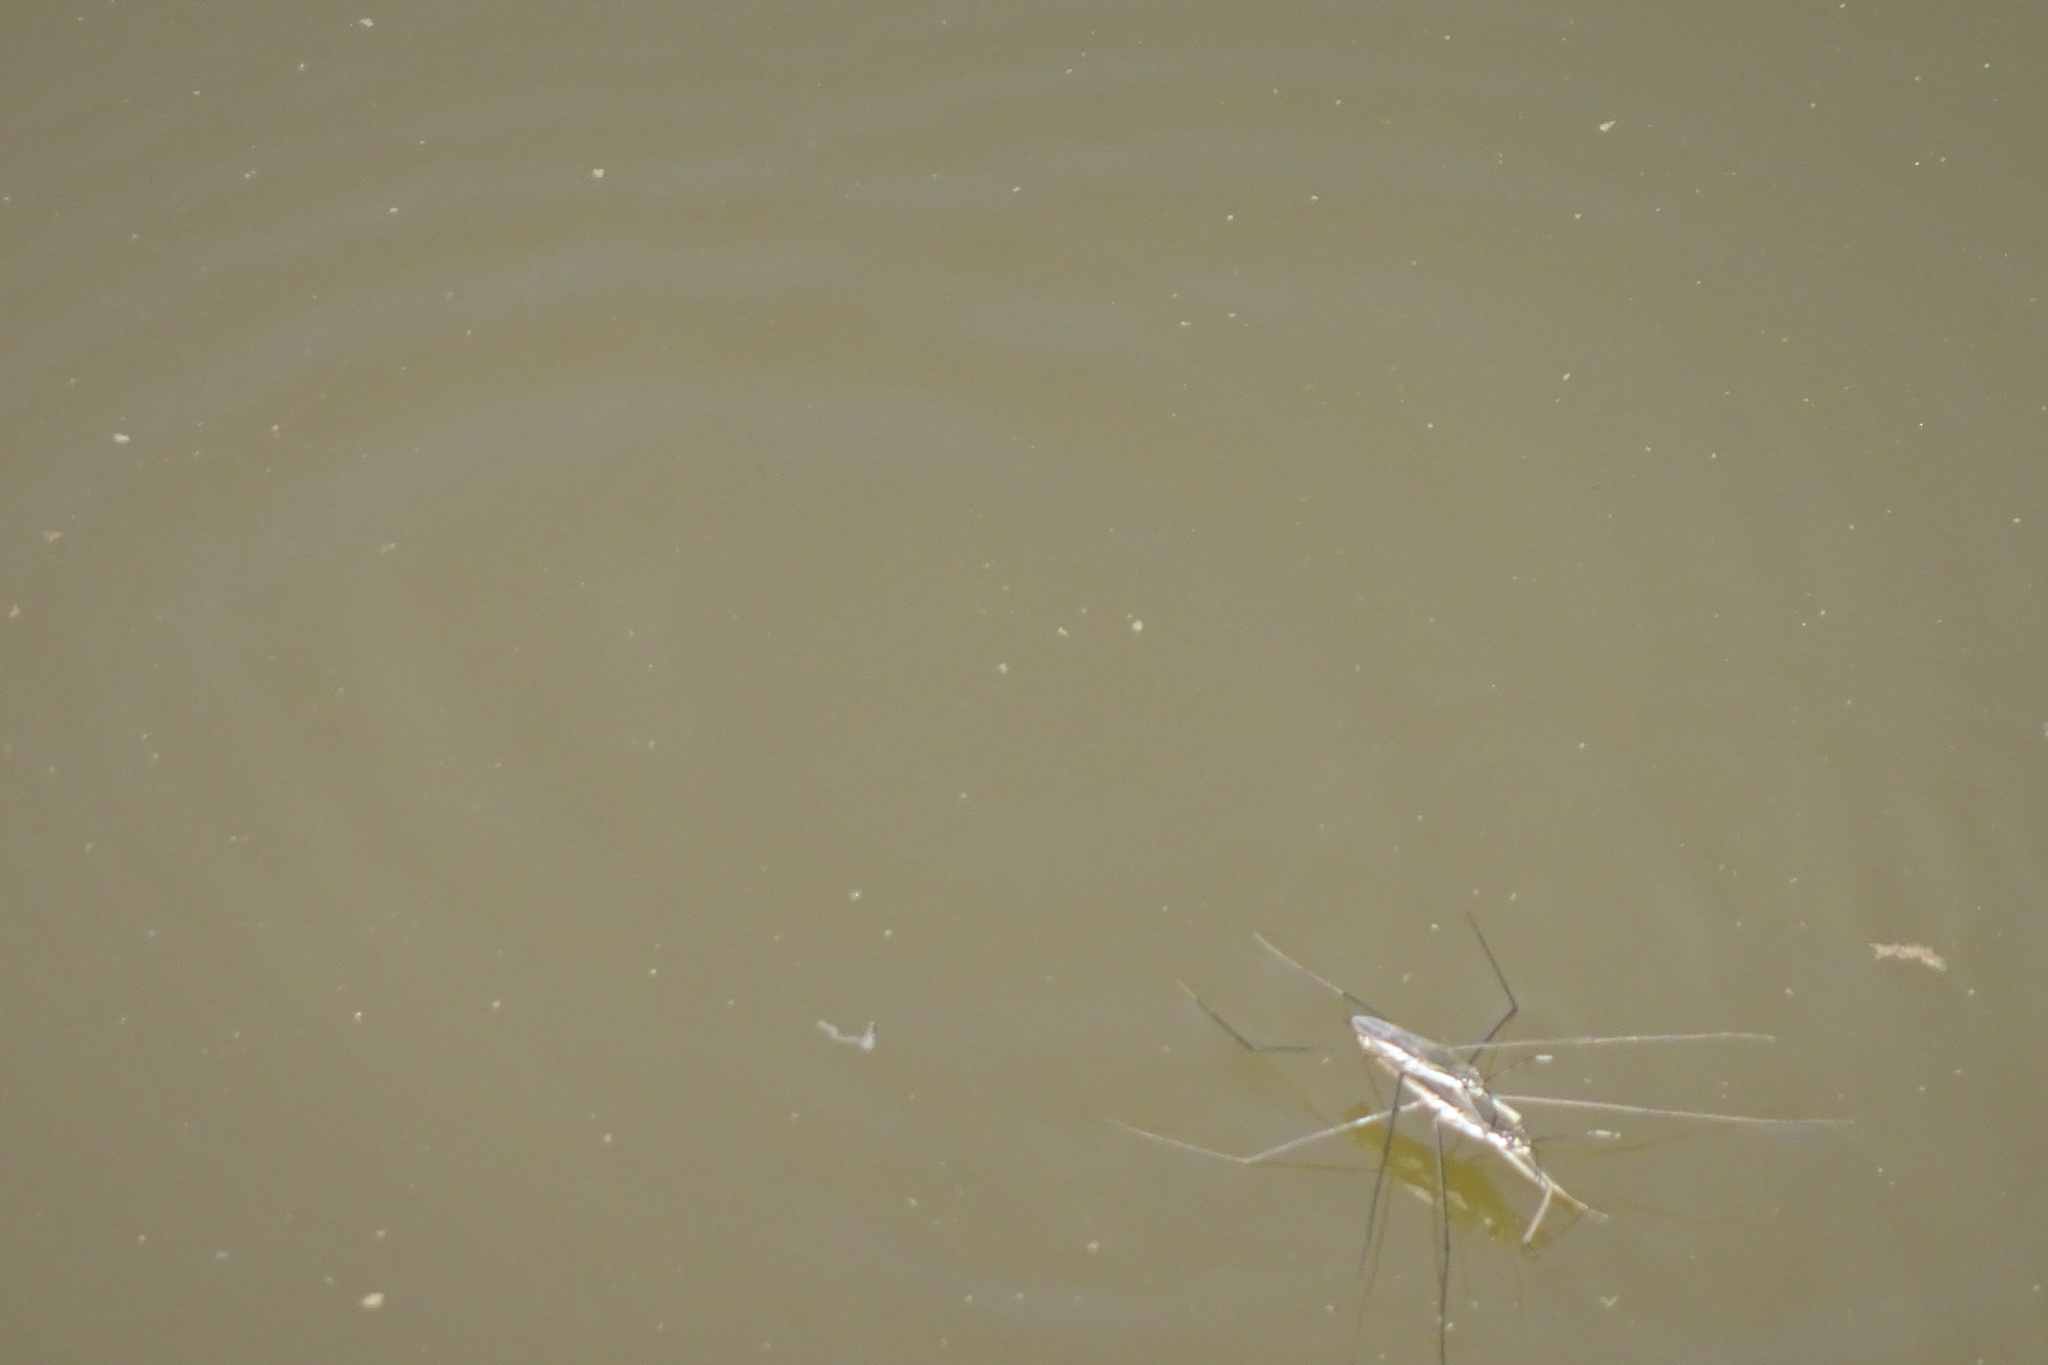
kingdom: Animalia
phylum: Arthropoda
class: Insecta
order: Hemiptera
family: Gerridae
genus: Aquarius
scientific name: Aquarius paludum
